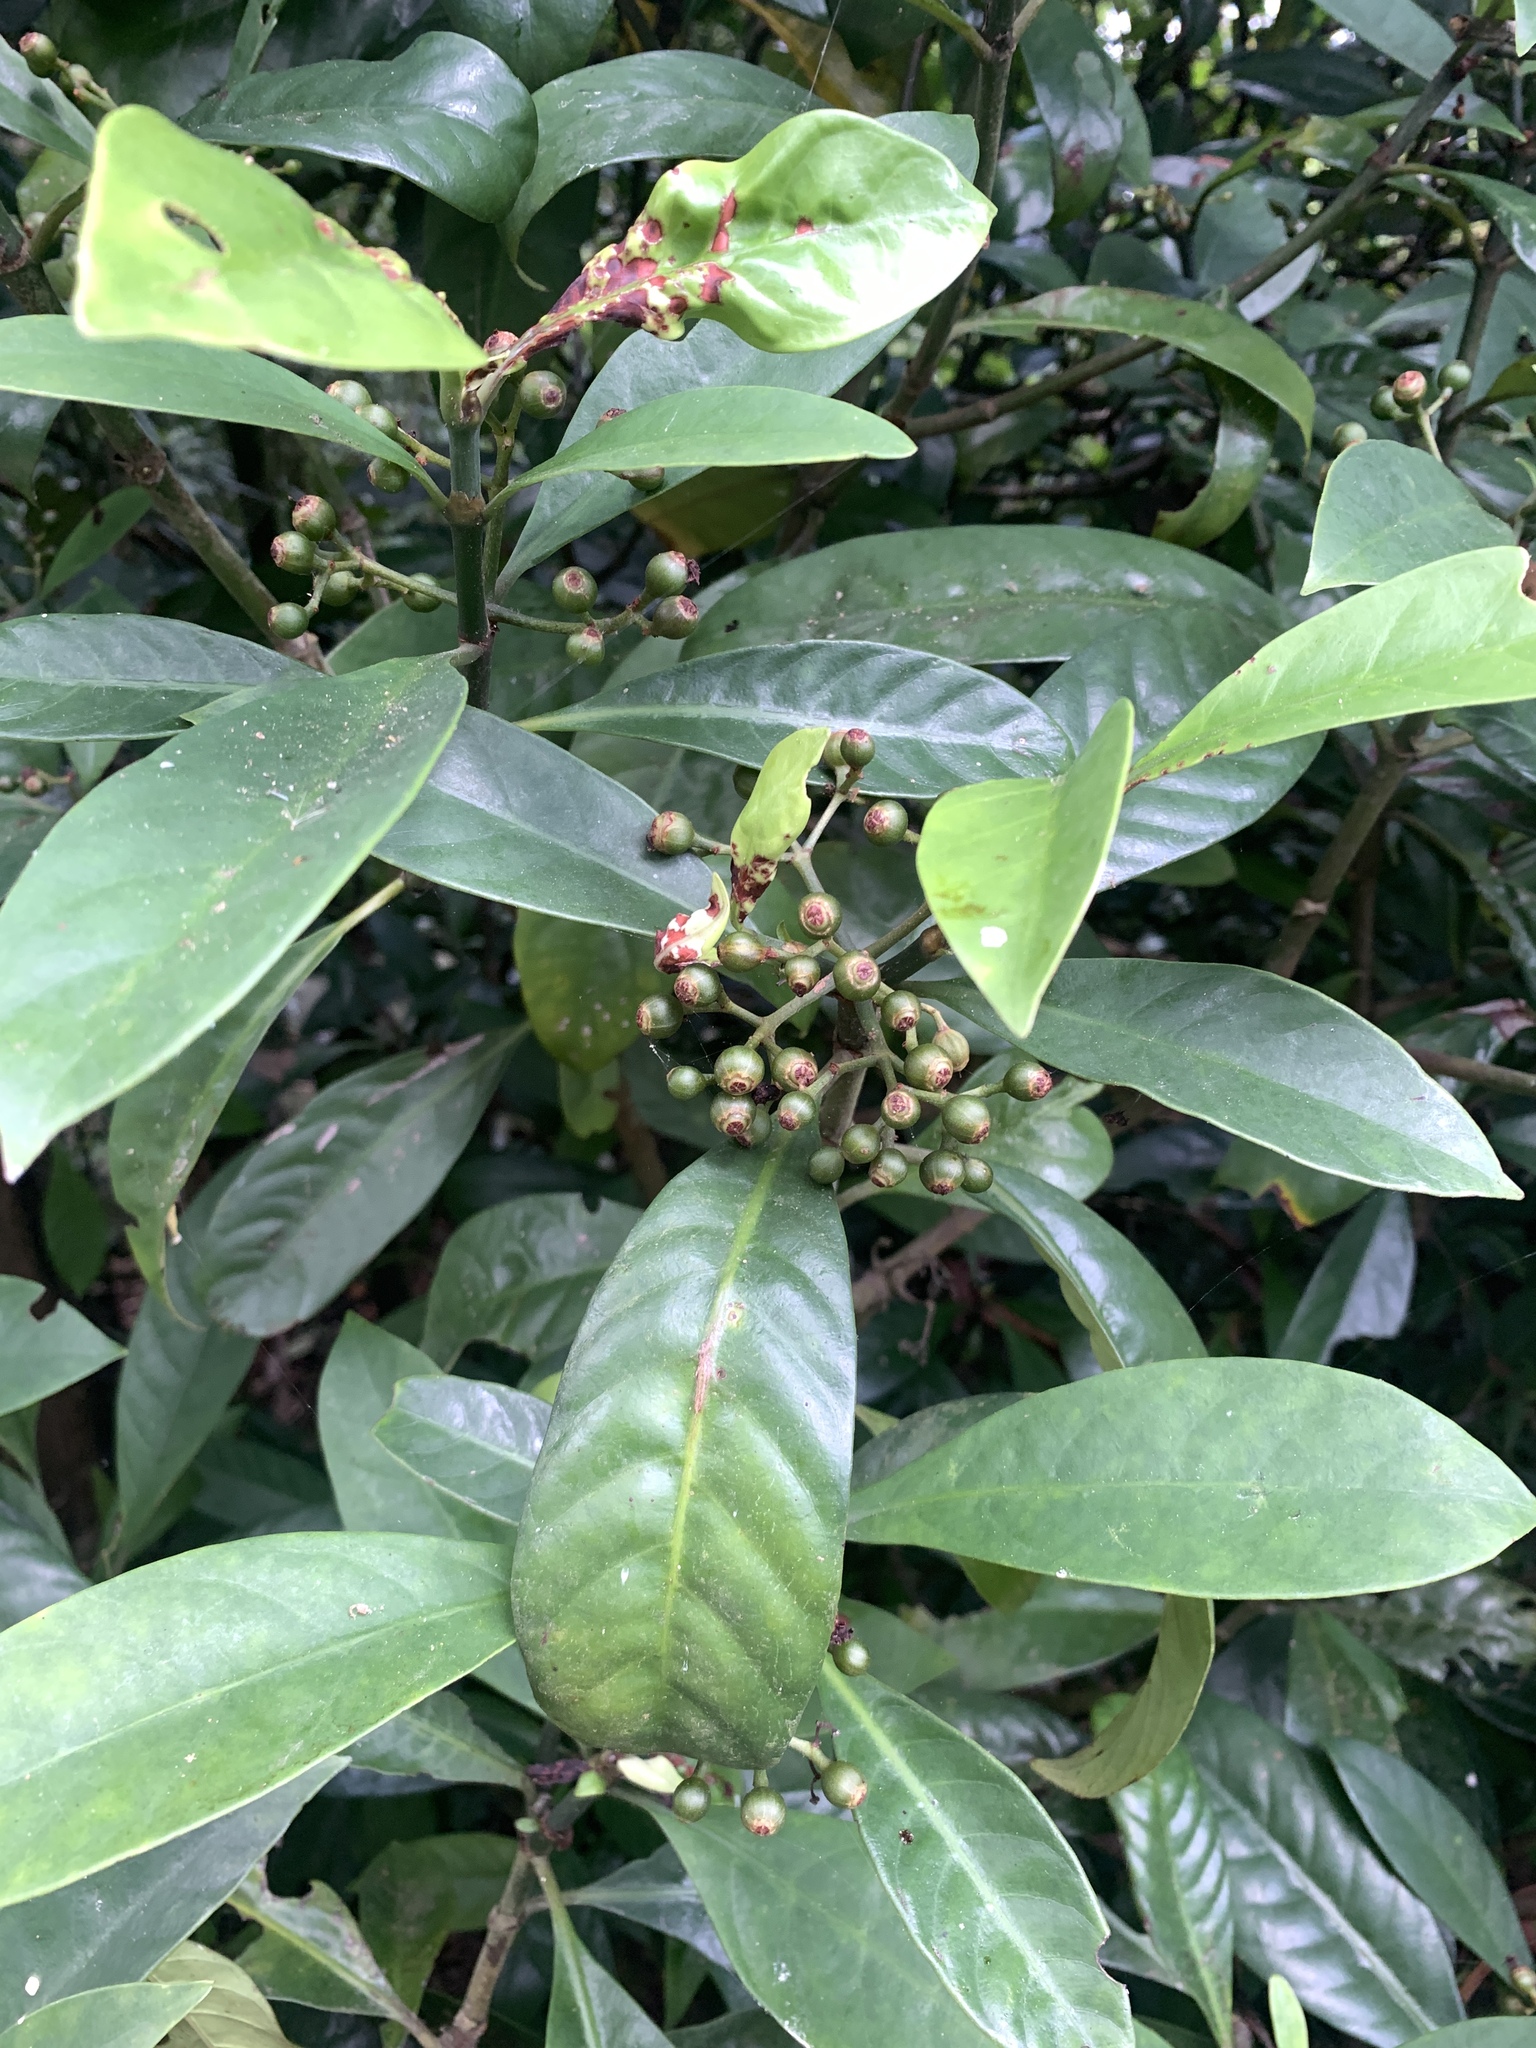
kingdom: Plantae
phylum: Tracheophyta
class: Magnoliopsida
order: Gentianales
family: Rubiaceae
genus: Psychotria
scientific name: Psychotria asiatica
